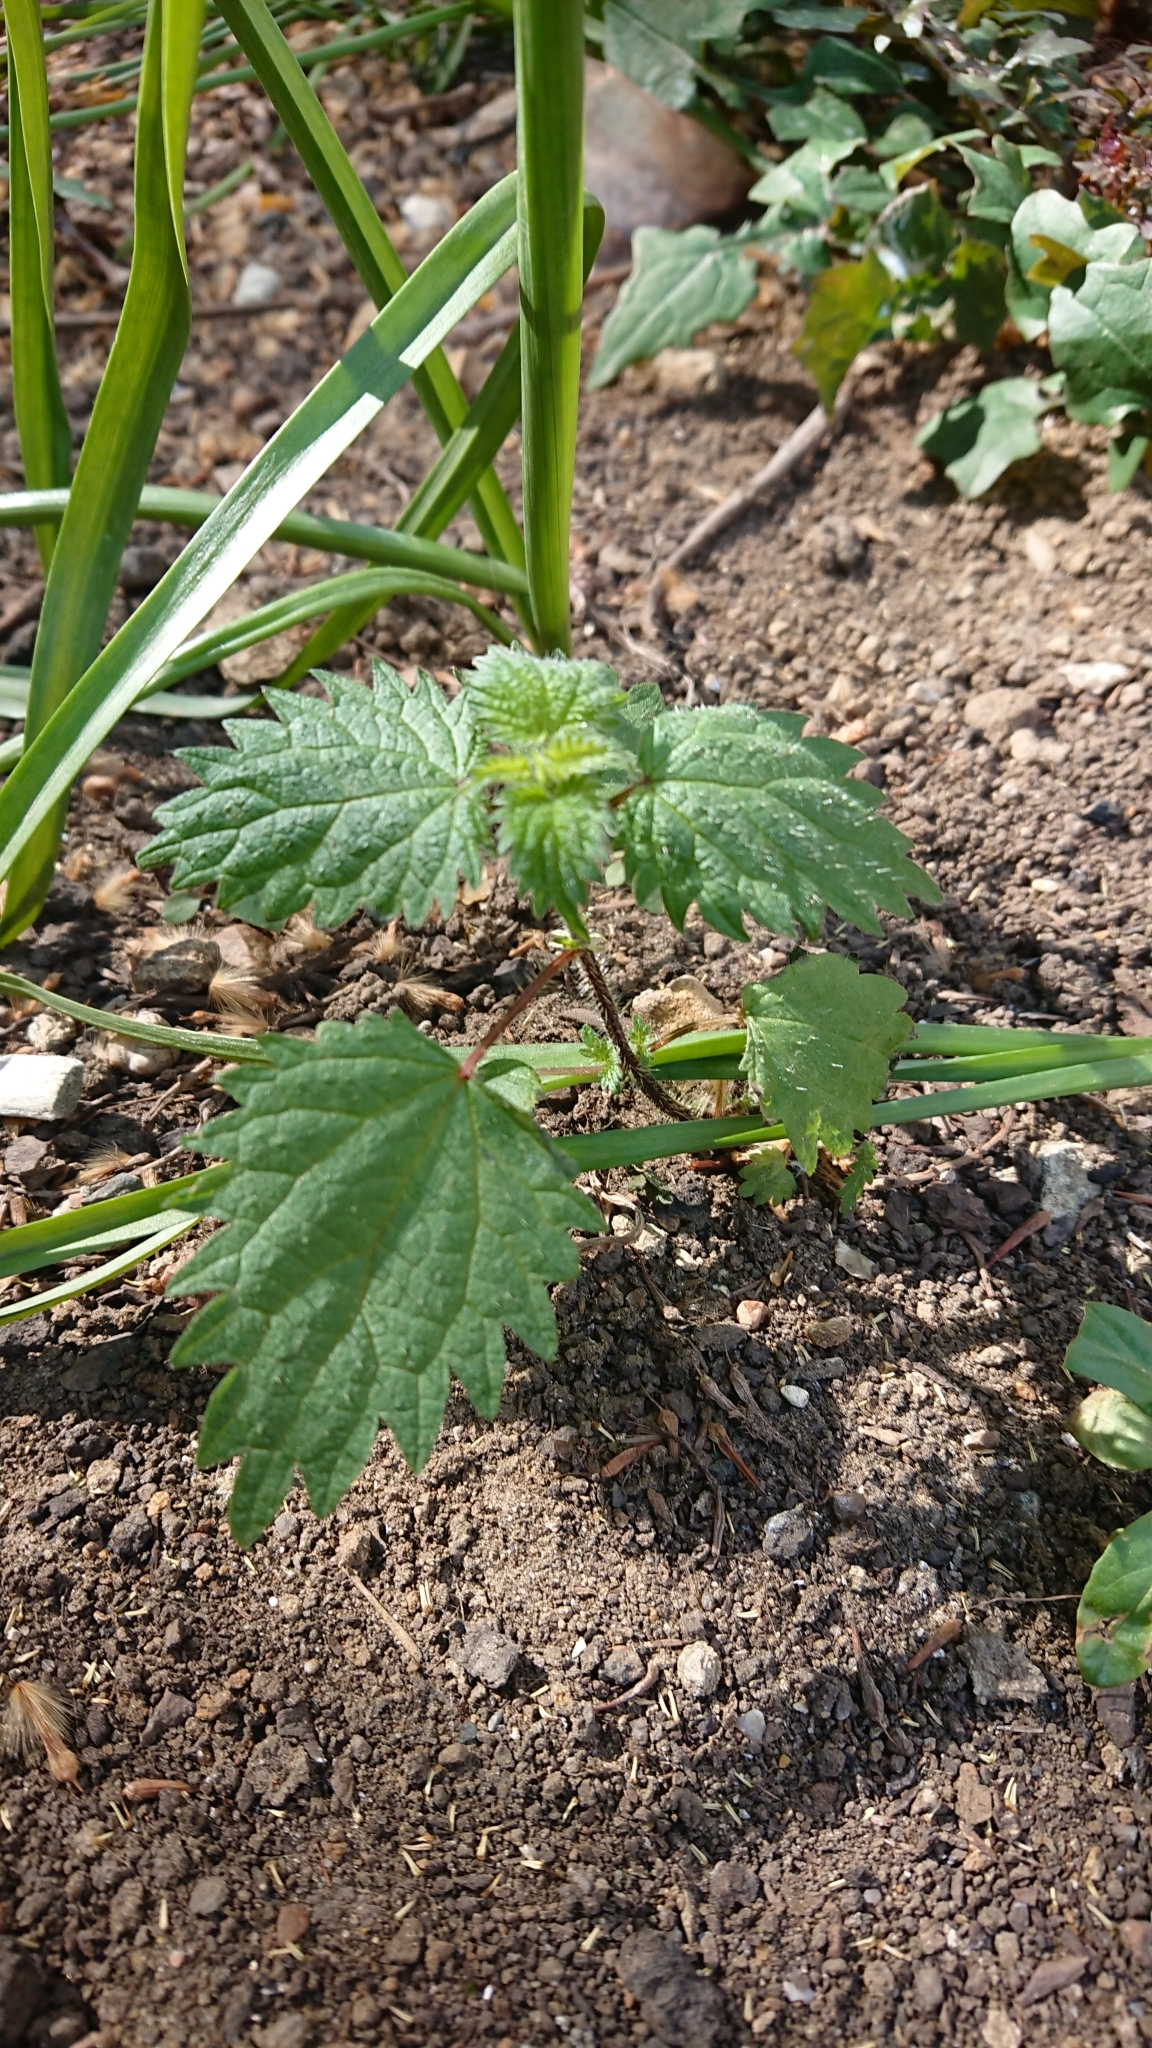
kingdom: Plantae
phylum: Tracheophyta
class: Magnoliopsida
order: Rosales
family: Urticaceae
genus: Urtica
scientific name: Urtica dioica
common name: Common nettle
